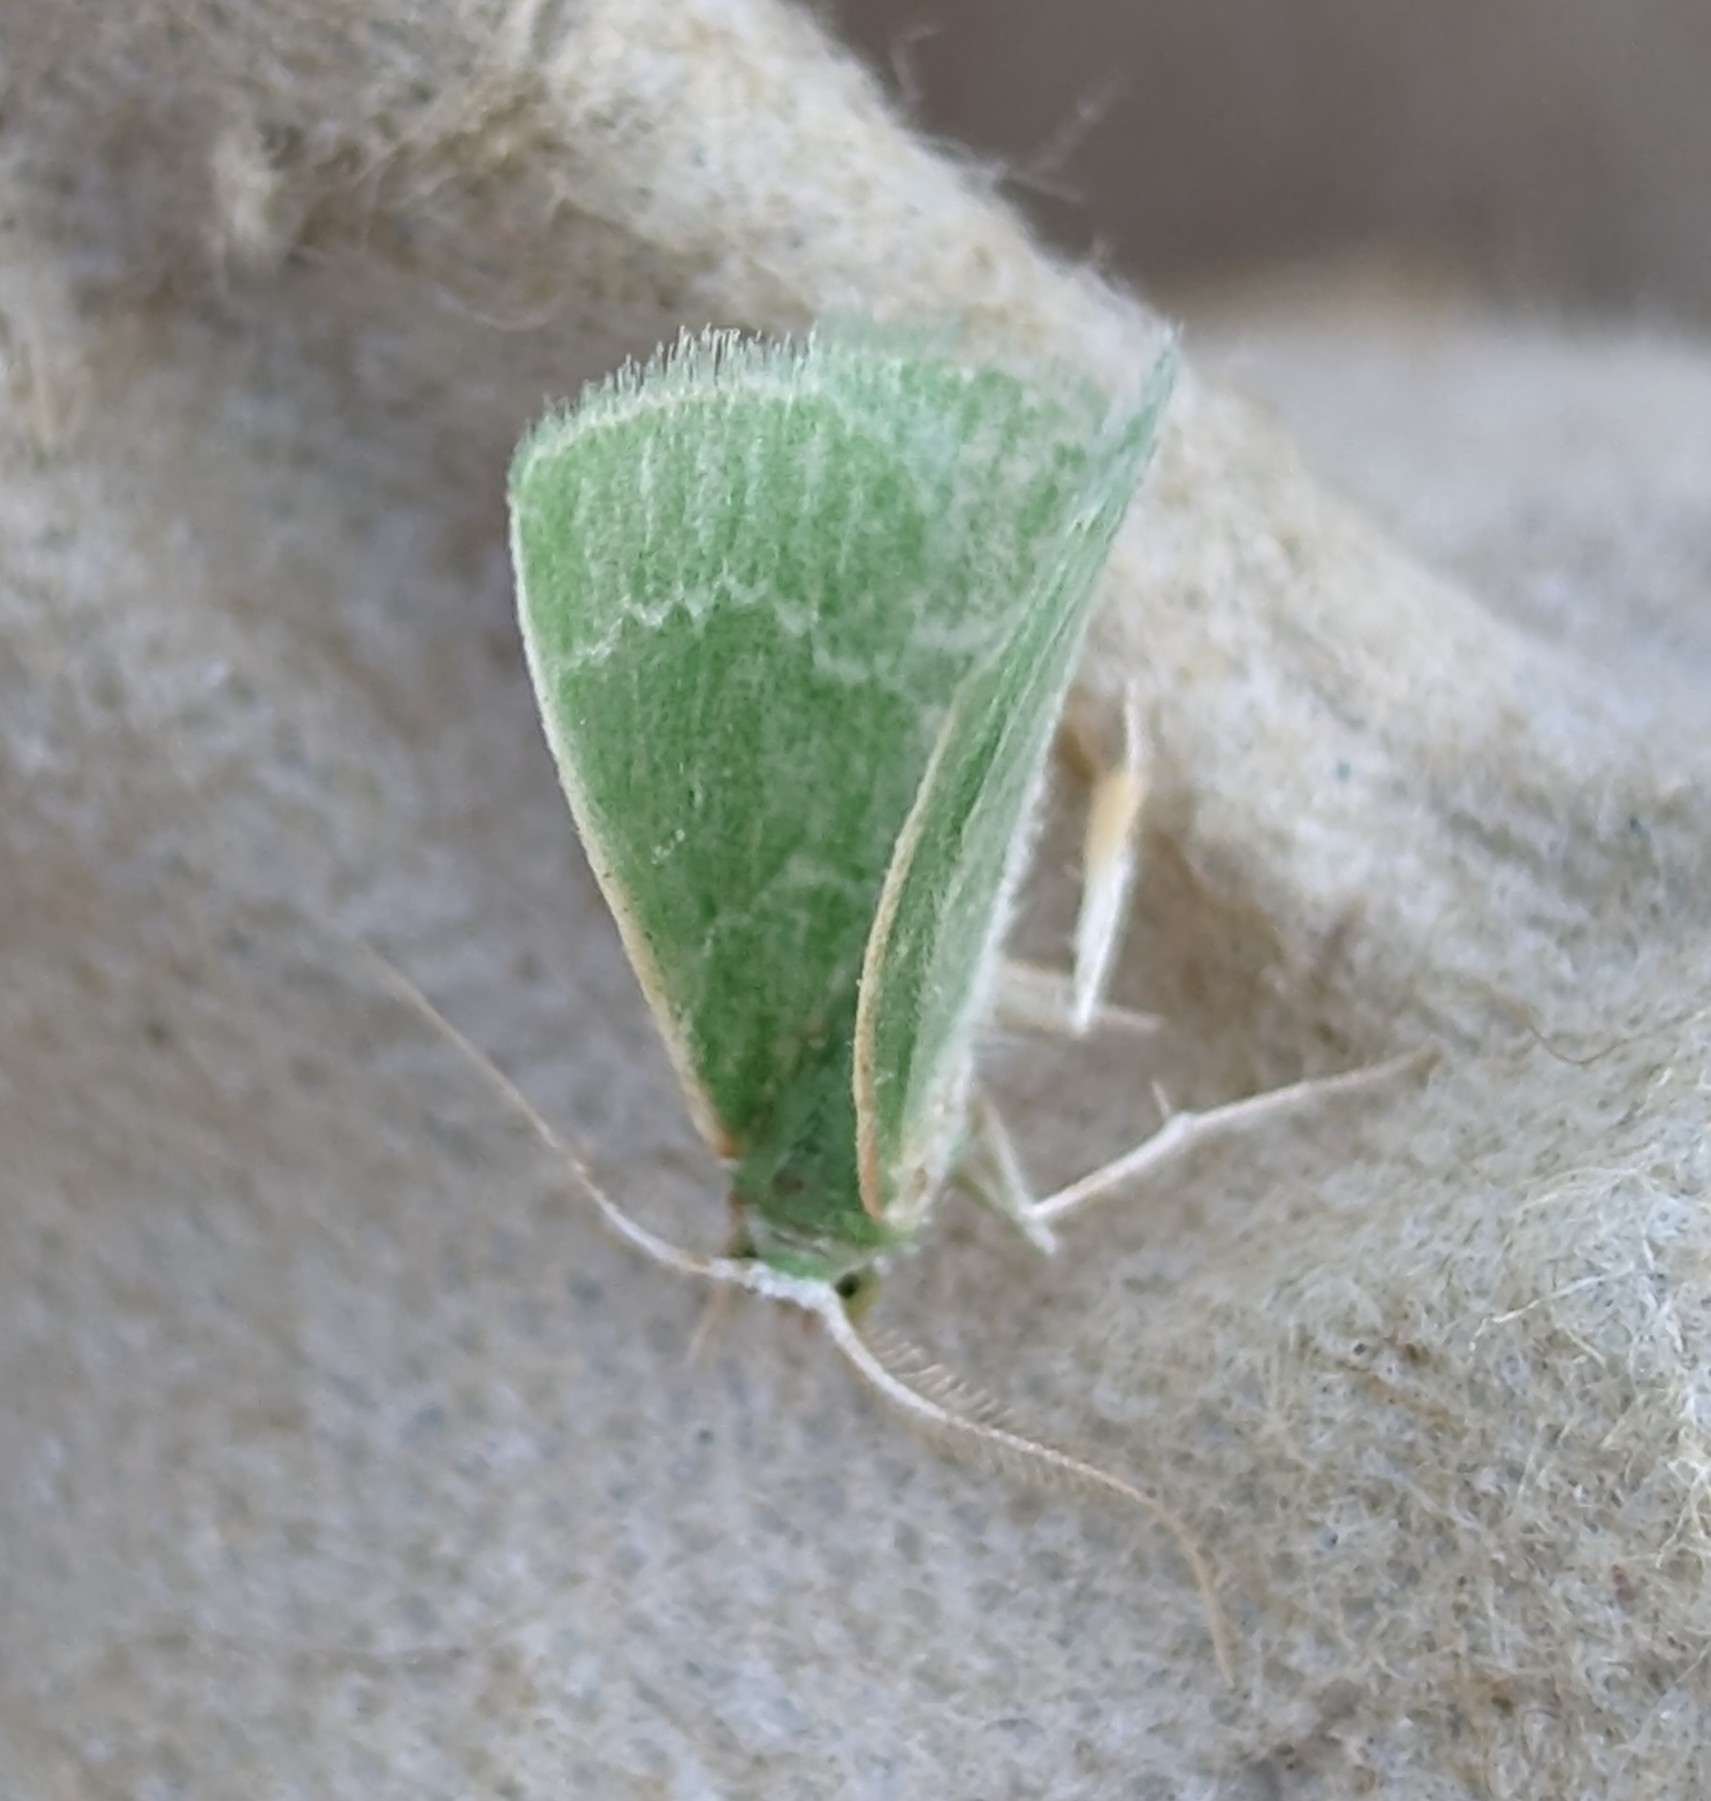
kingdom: Animalia
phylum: Arthropoda
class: Insecta
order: Lepidoptera
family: Geometridae
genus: Synchlora
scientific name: Synchlora aerata
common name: Wavy-lined emerald
